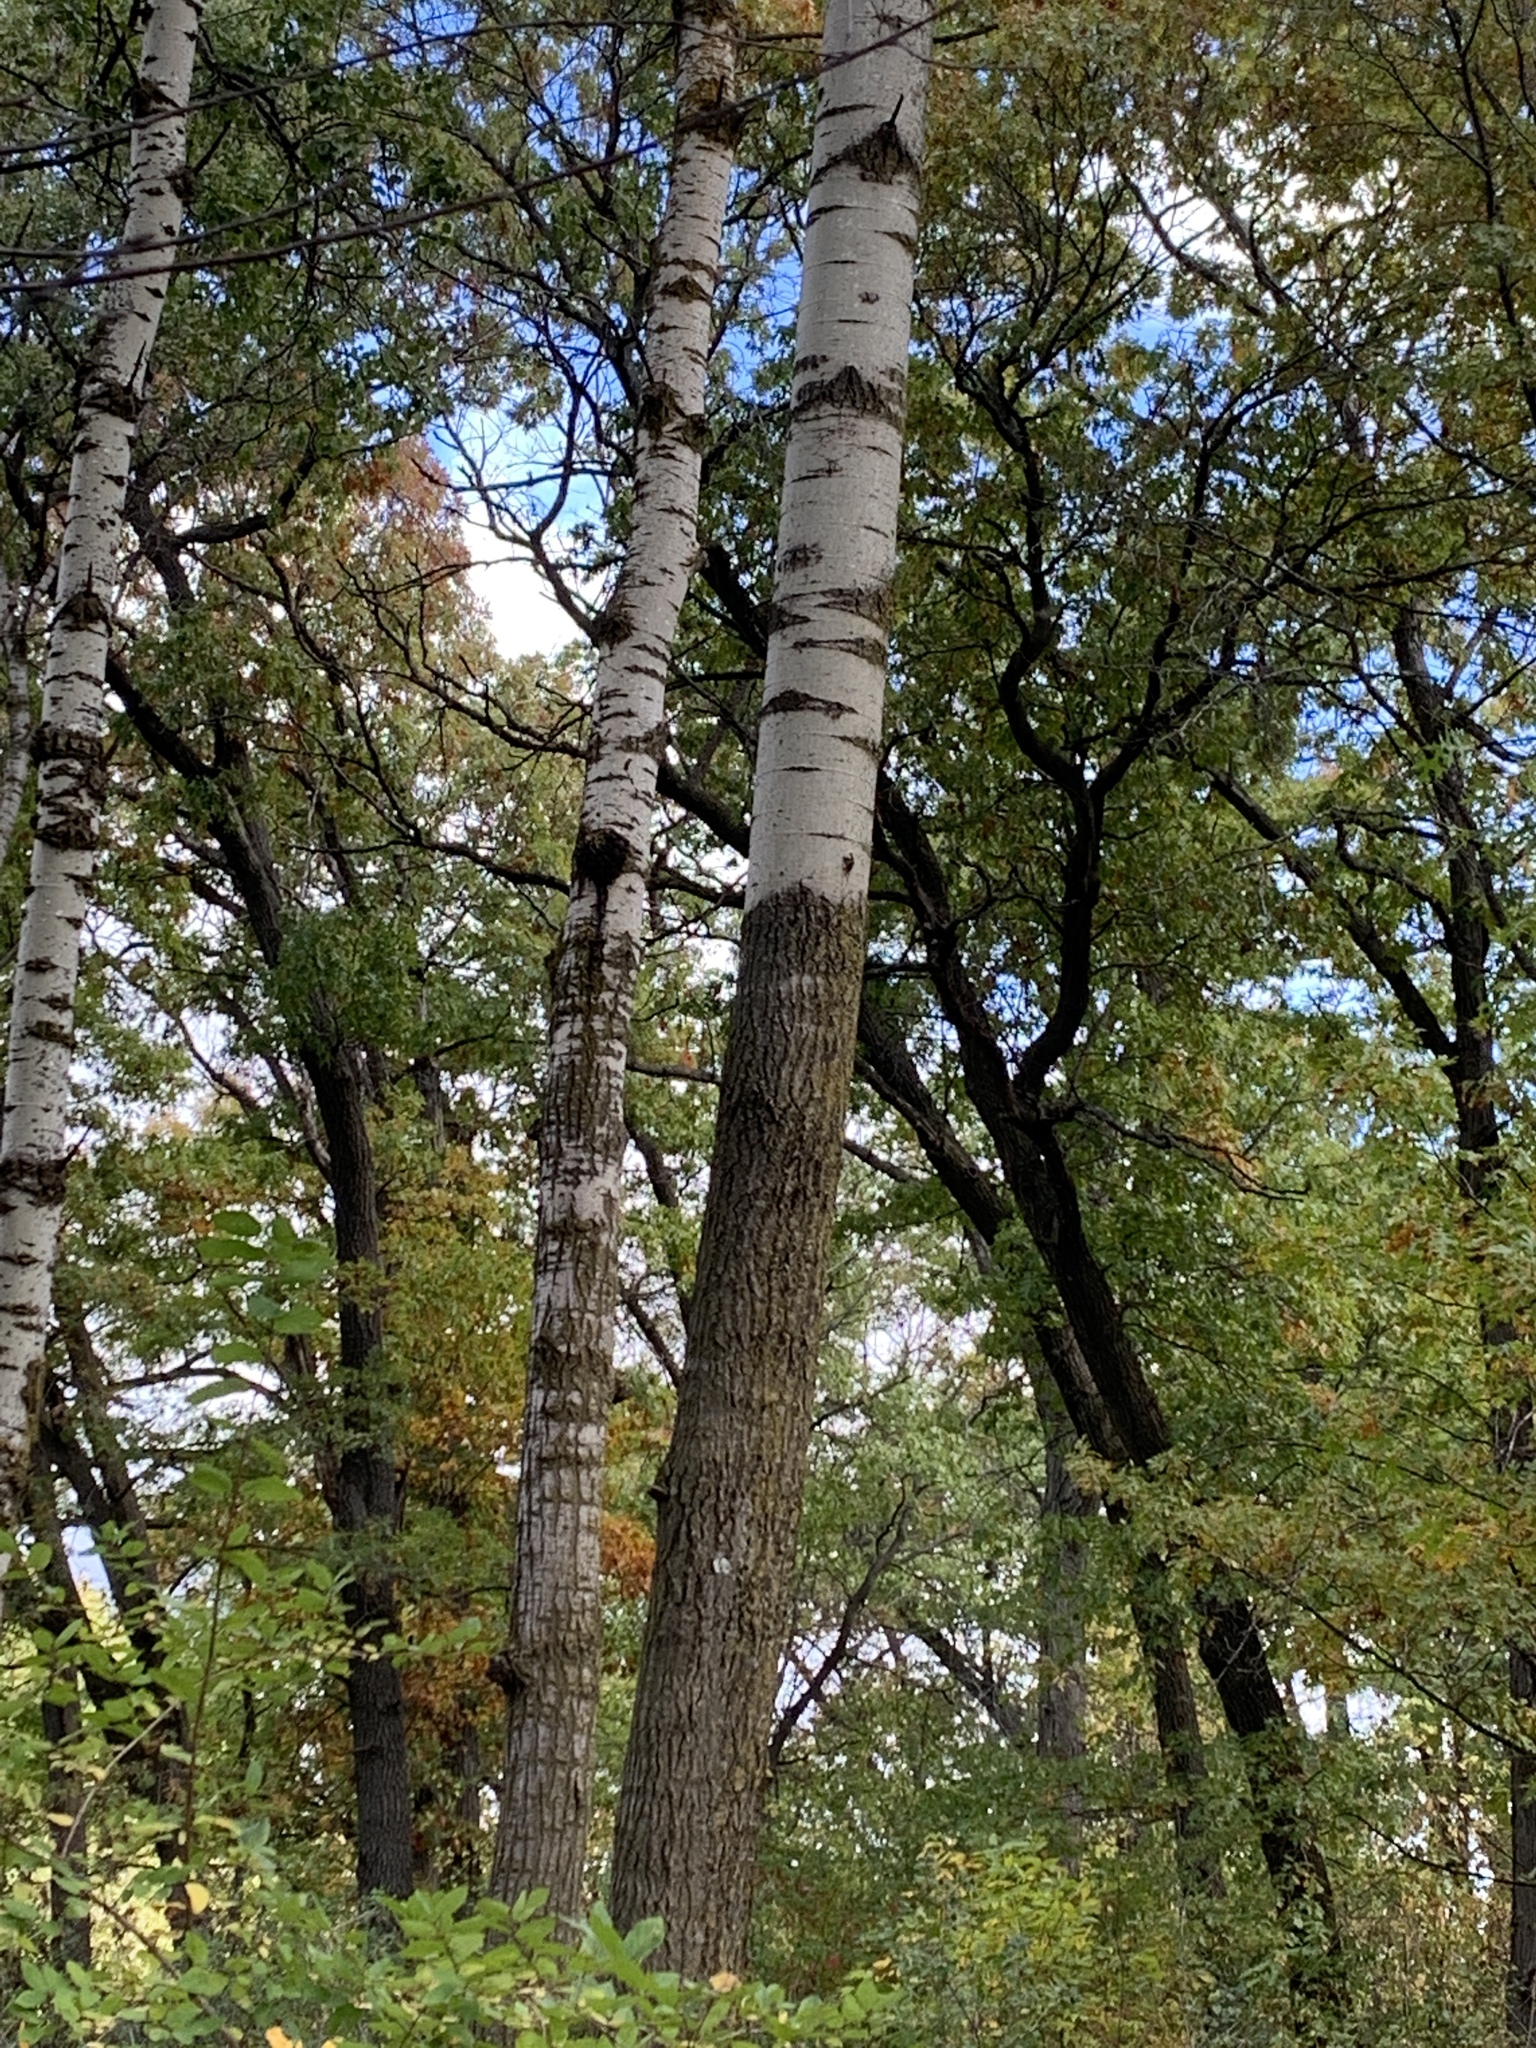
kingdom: Plantae
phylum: Tracheophyta
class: Magnoliopsida
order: Malpighiales
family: Salicaceae
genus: Populus
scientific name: Populus tremuloides
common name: Quaking aspen
